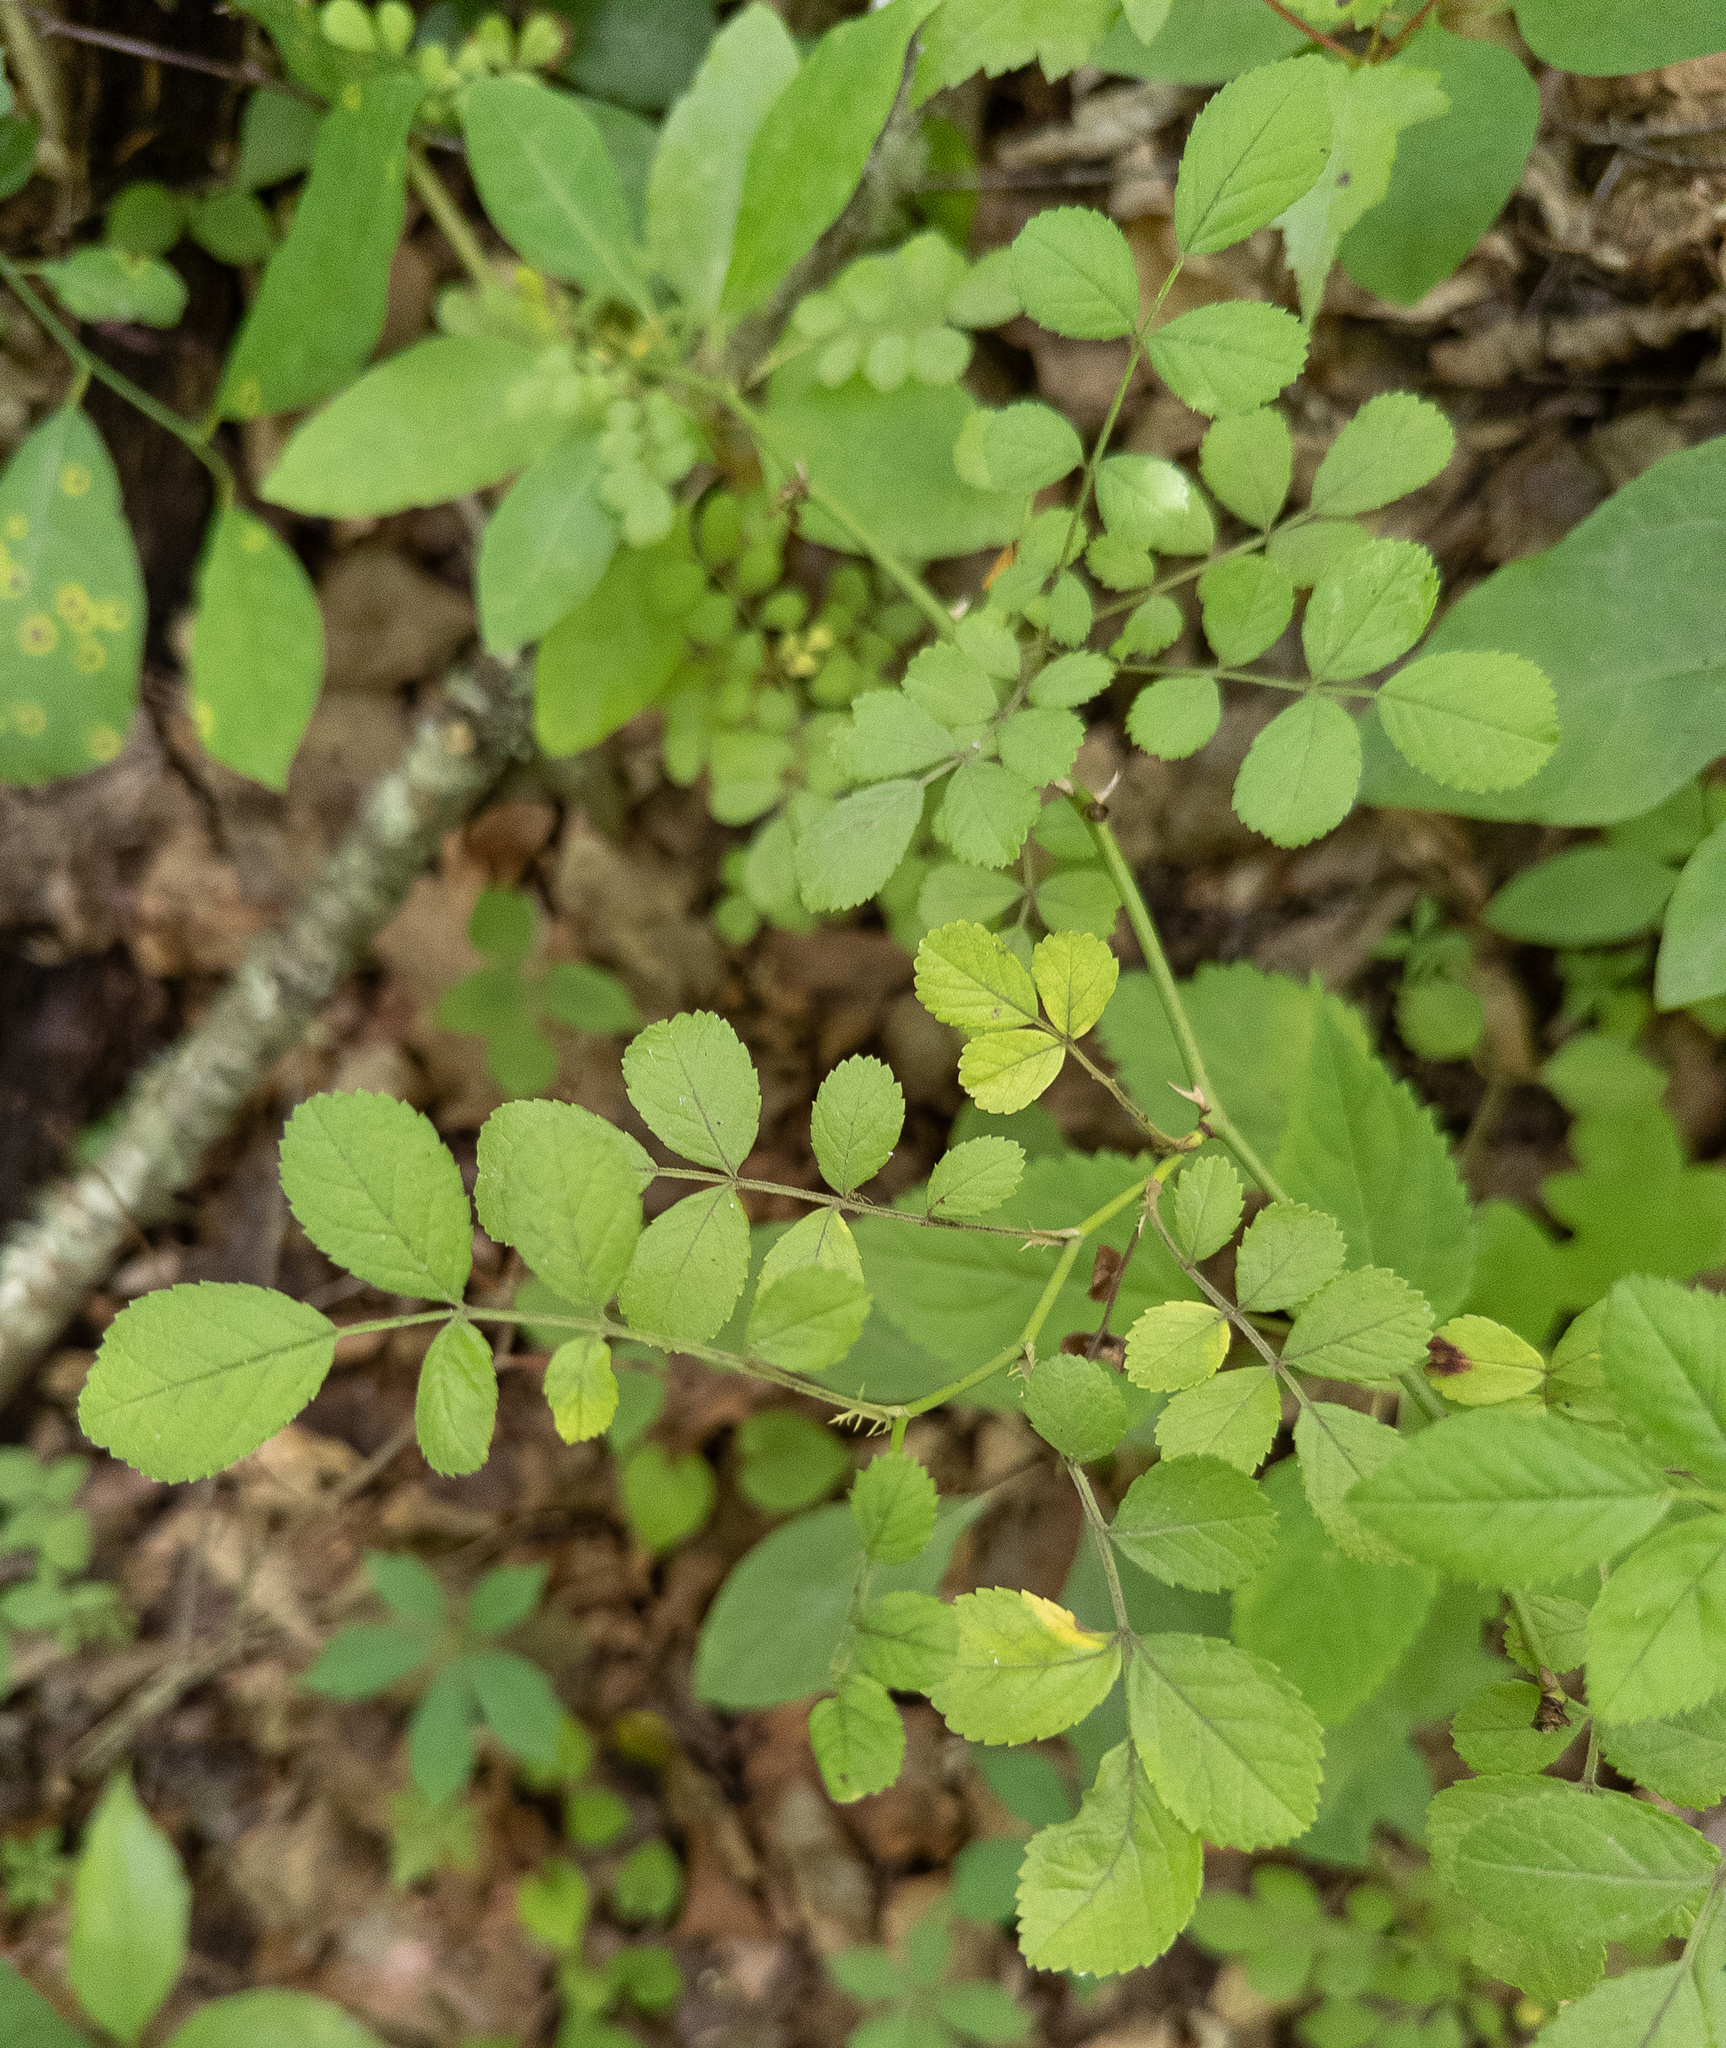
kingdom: Plantae
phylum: Tracheophyta
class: Magnoliopsida
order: Rosales
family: Rosaceae
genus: Rosa
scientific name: Rosa multiflora
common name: Multiflora rose
